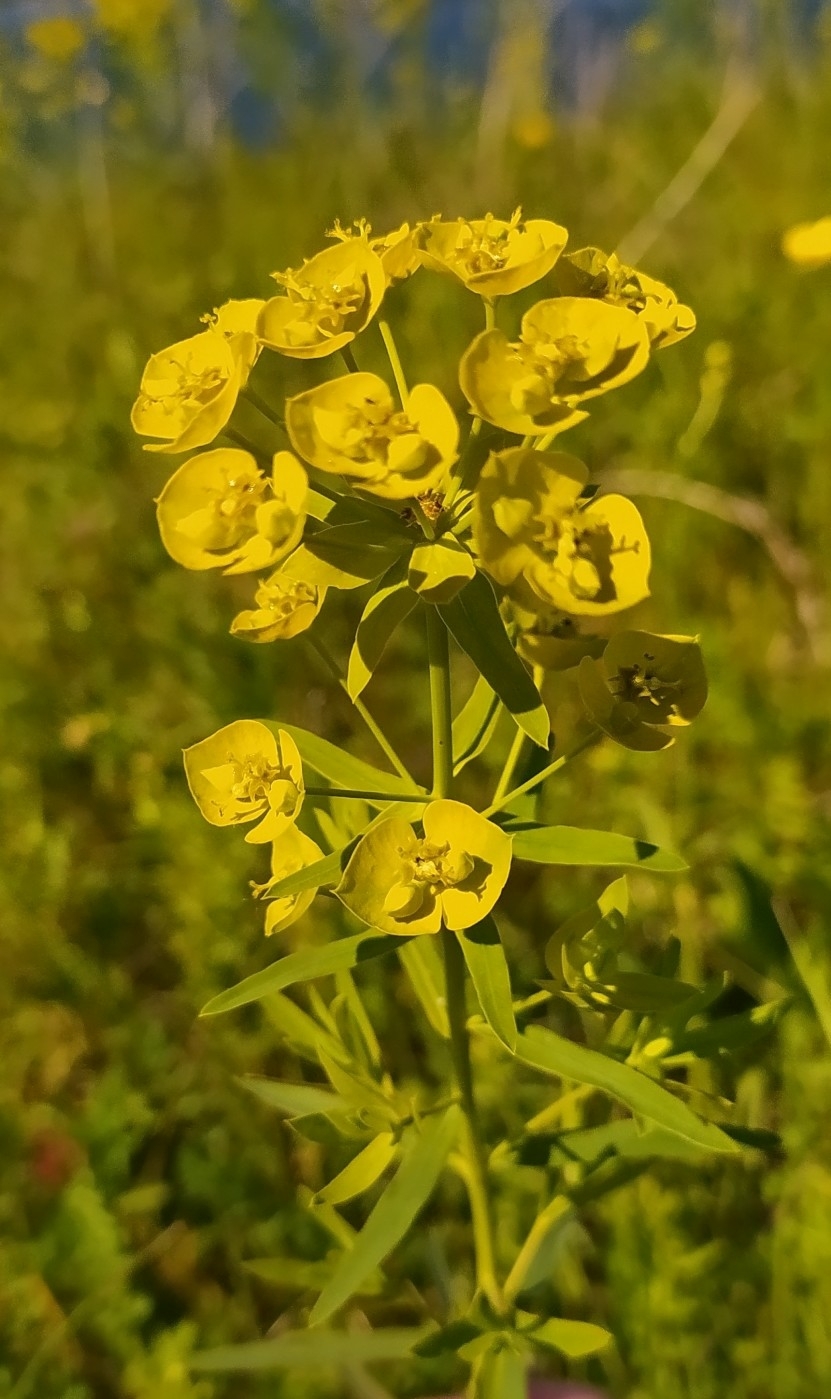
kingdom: Plantae
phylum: Tracheophyta
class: Magnoliopsida
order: Malpighiales
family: Euphorbiaceae
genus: Euphorbia
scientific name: Euphorbia virgata
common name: Leafy spurge
